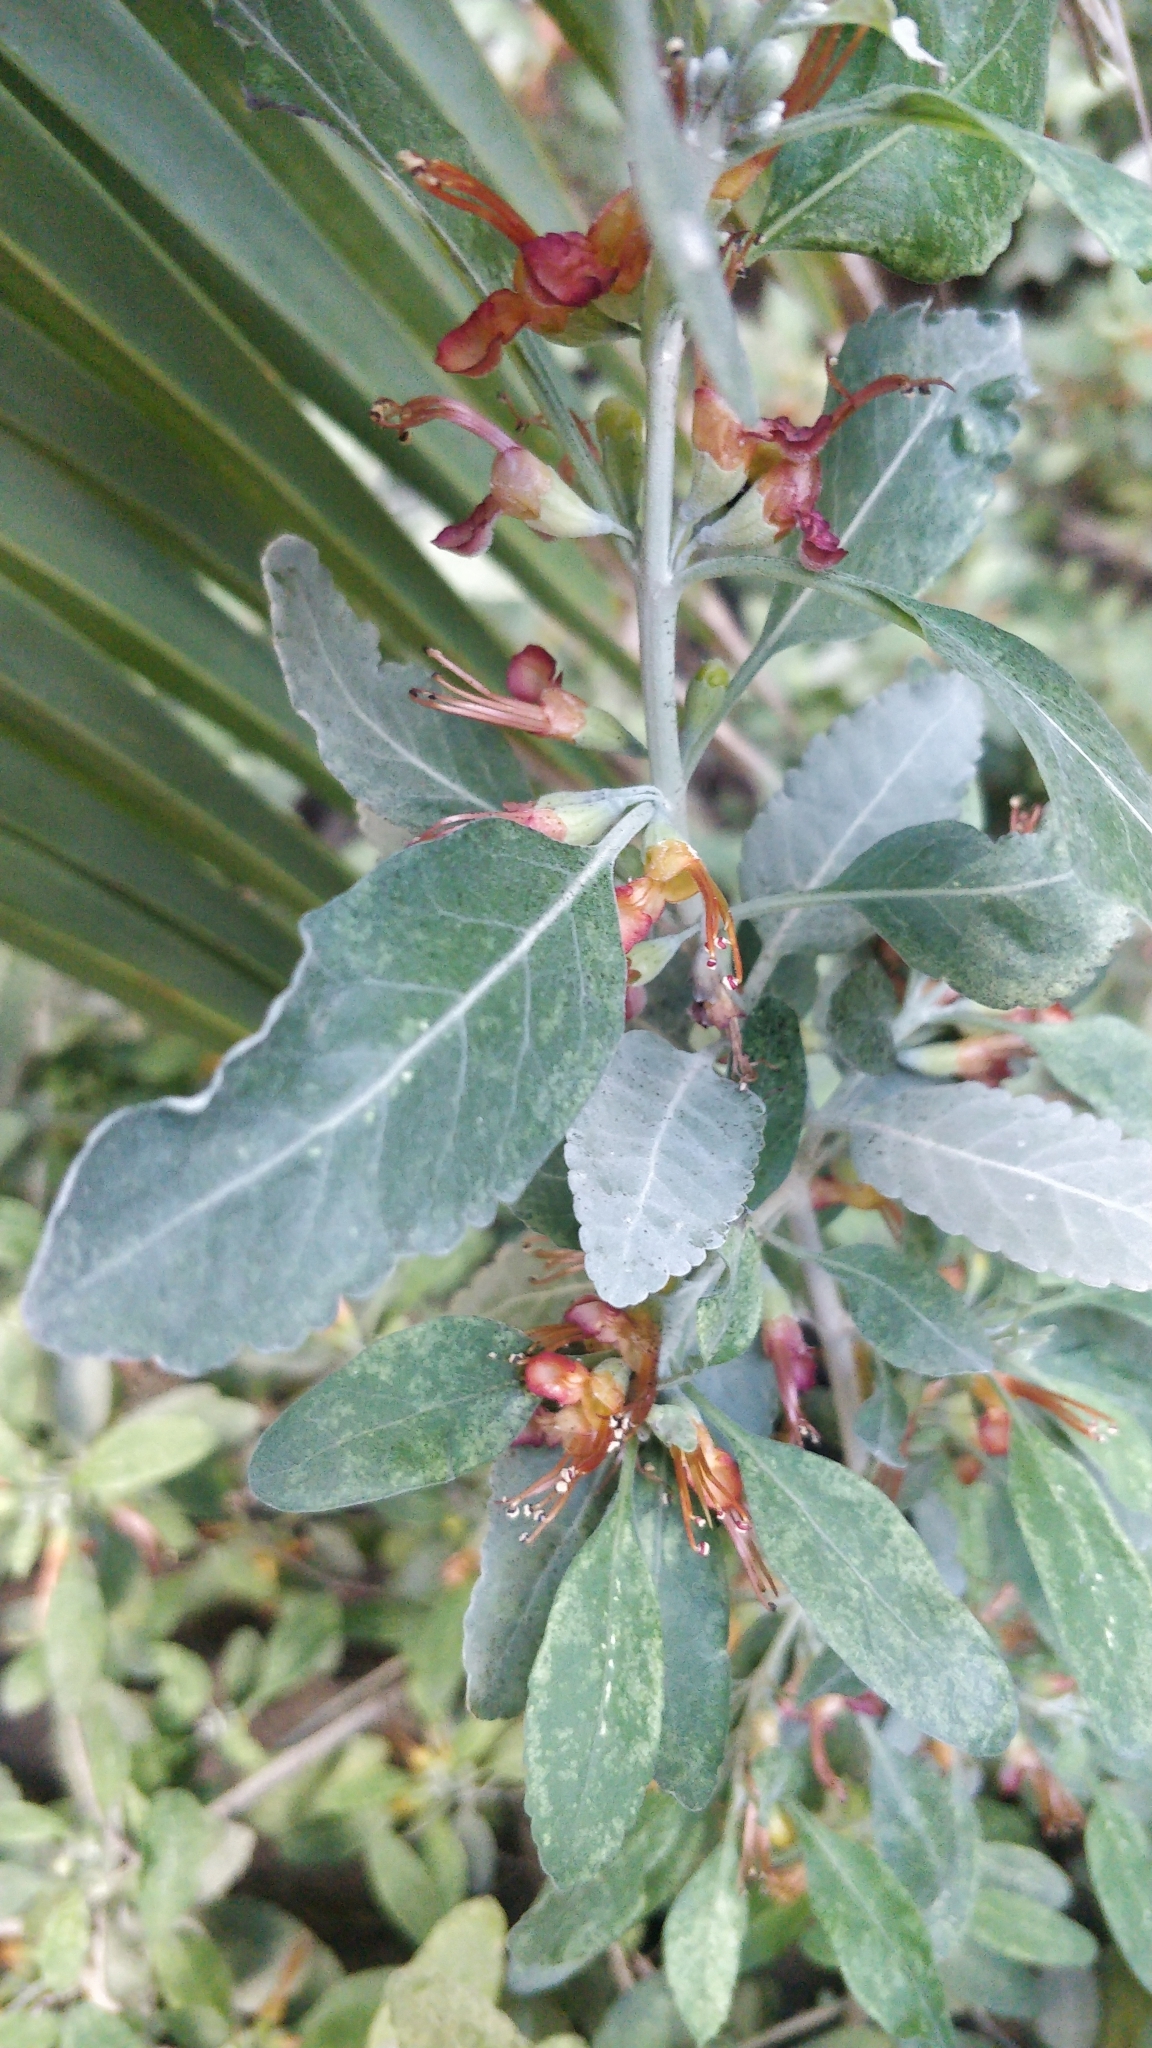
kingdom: Plantae
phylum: Tracheophyta
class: Magnoliopsida
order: Lamiales
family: Lamiaceae
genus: Teucrium
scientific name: Teucrium heterophyllum
